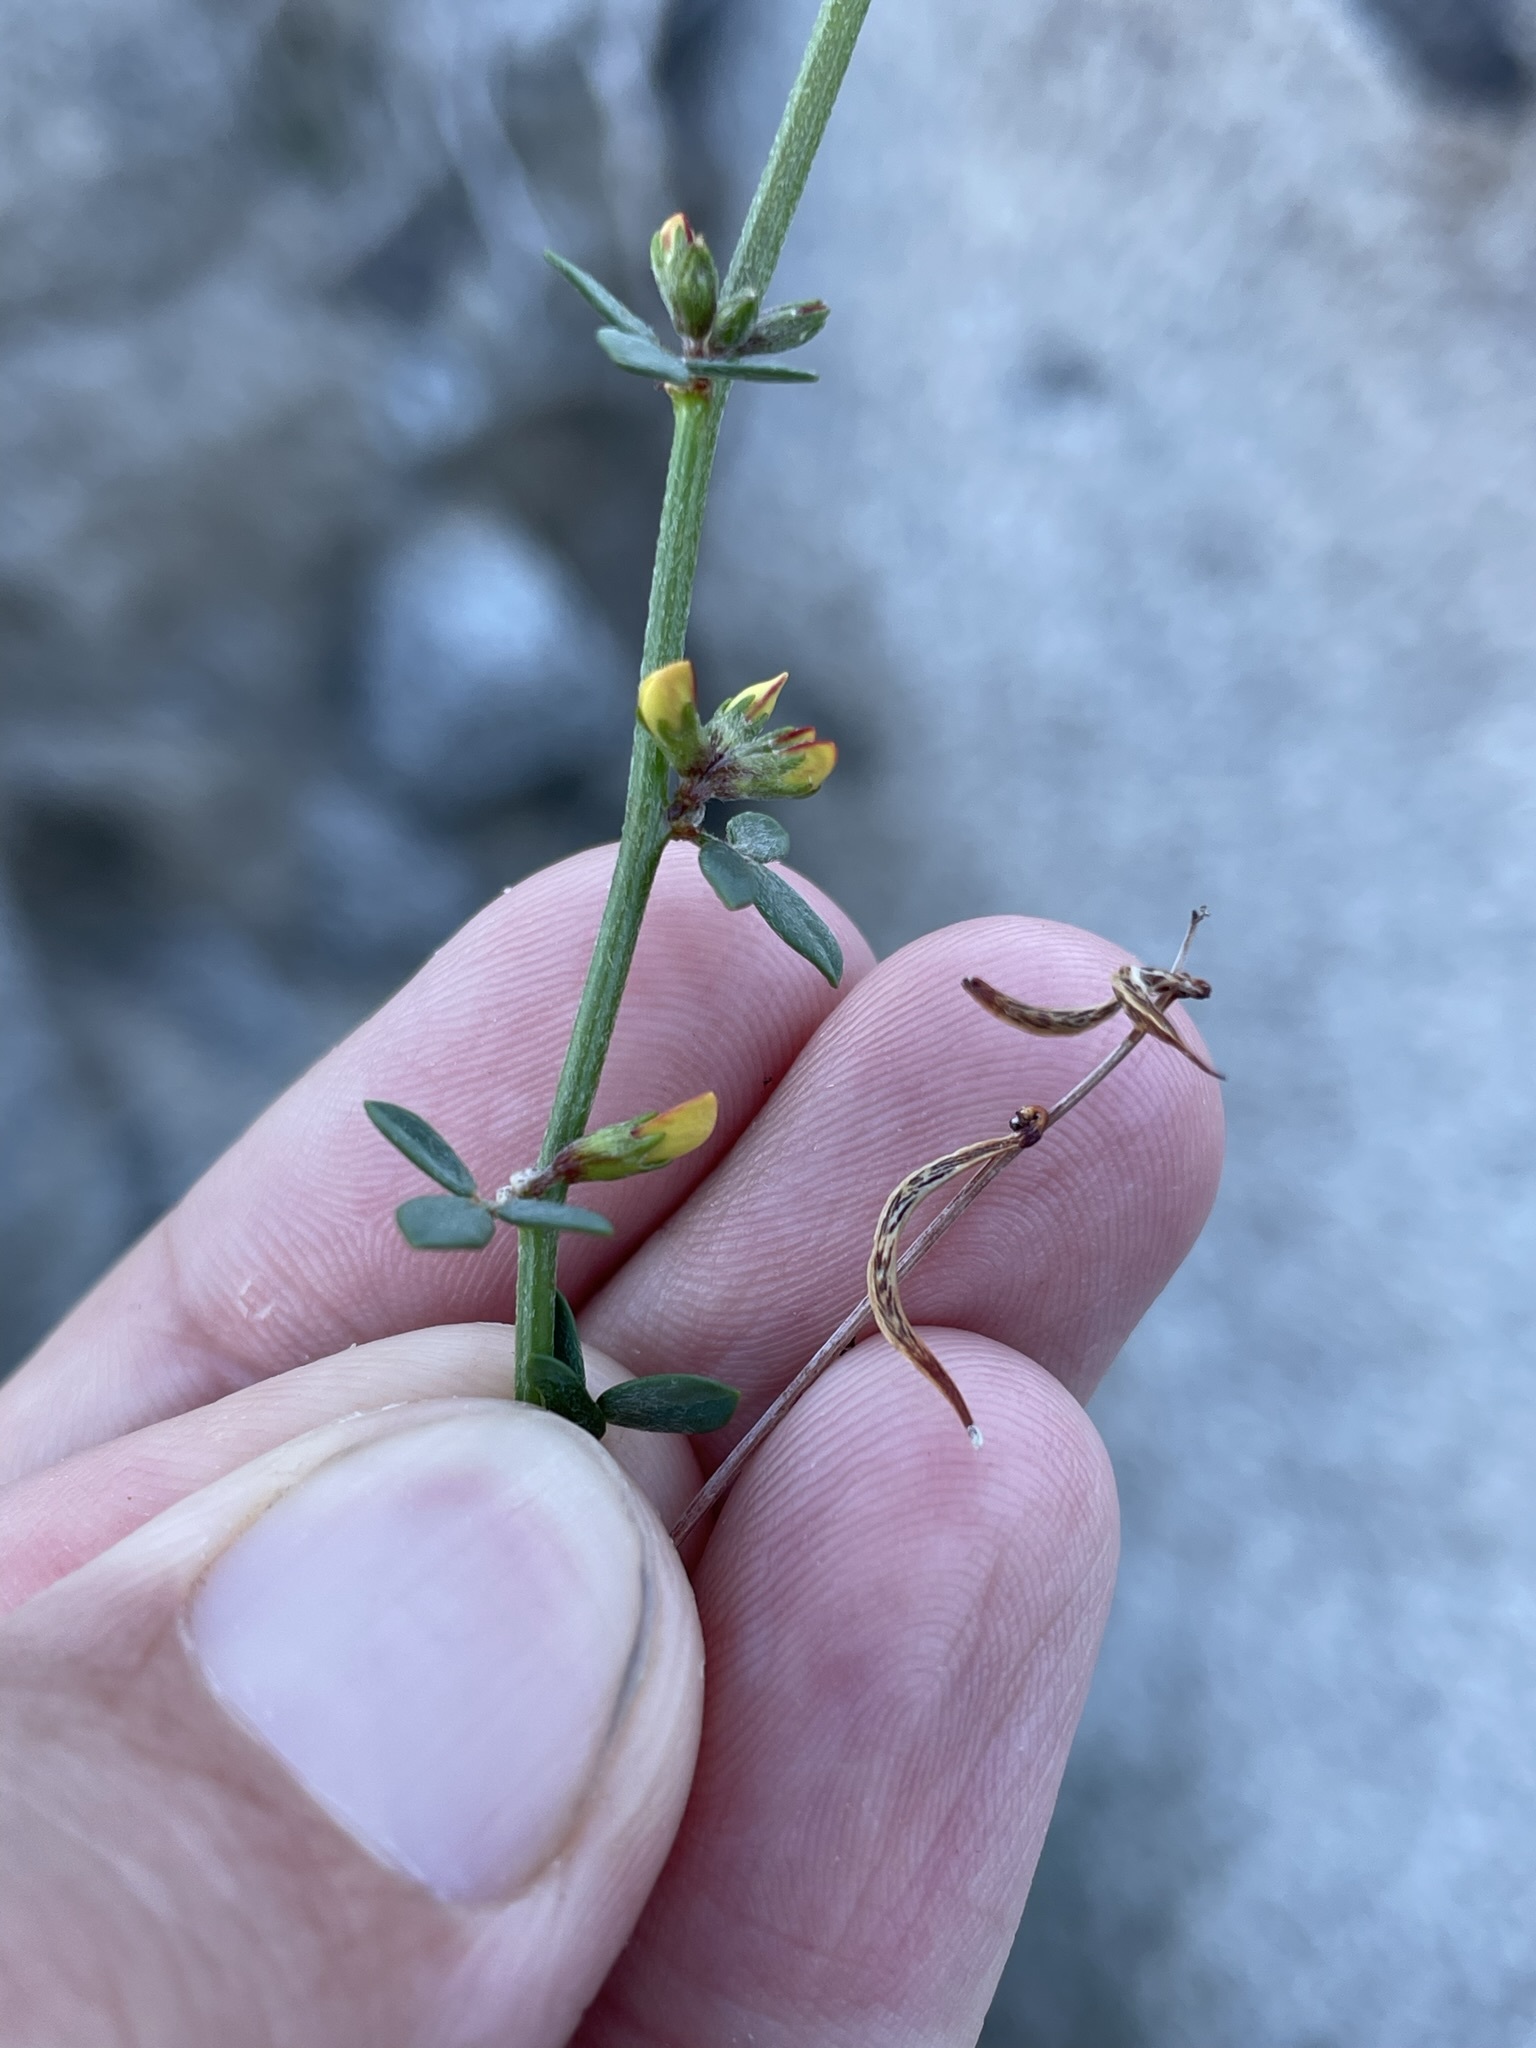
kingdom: Plantae
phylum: Tracheophyta
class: Magnoliopsida
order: Fabales
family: Fabaceae
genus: Acmispon
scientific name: Acmispon glaber
